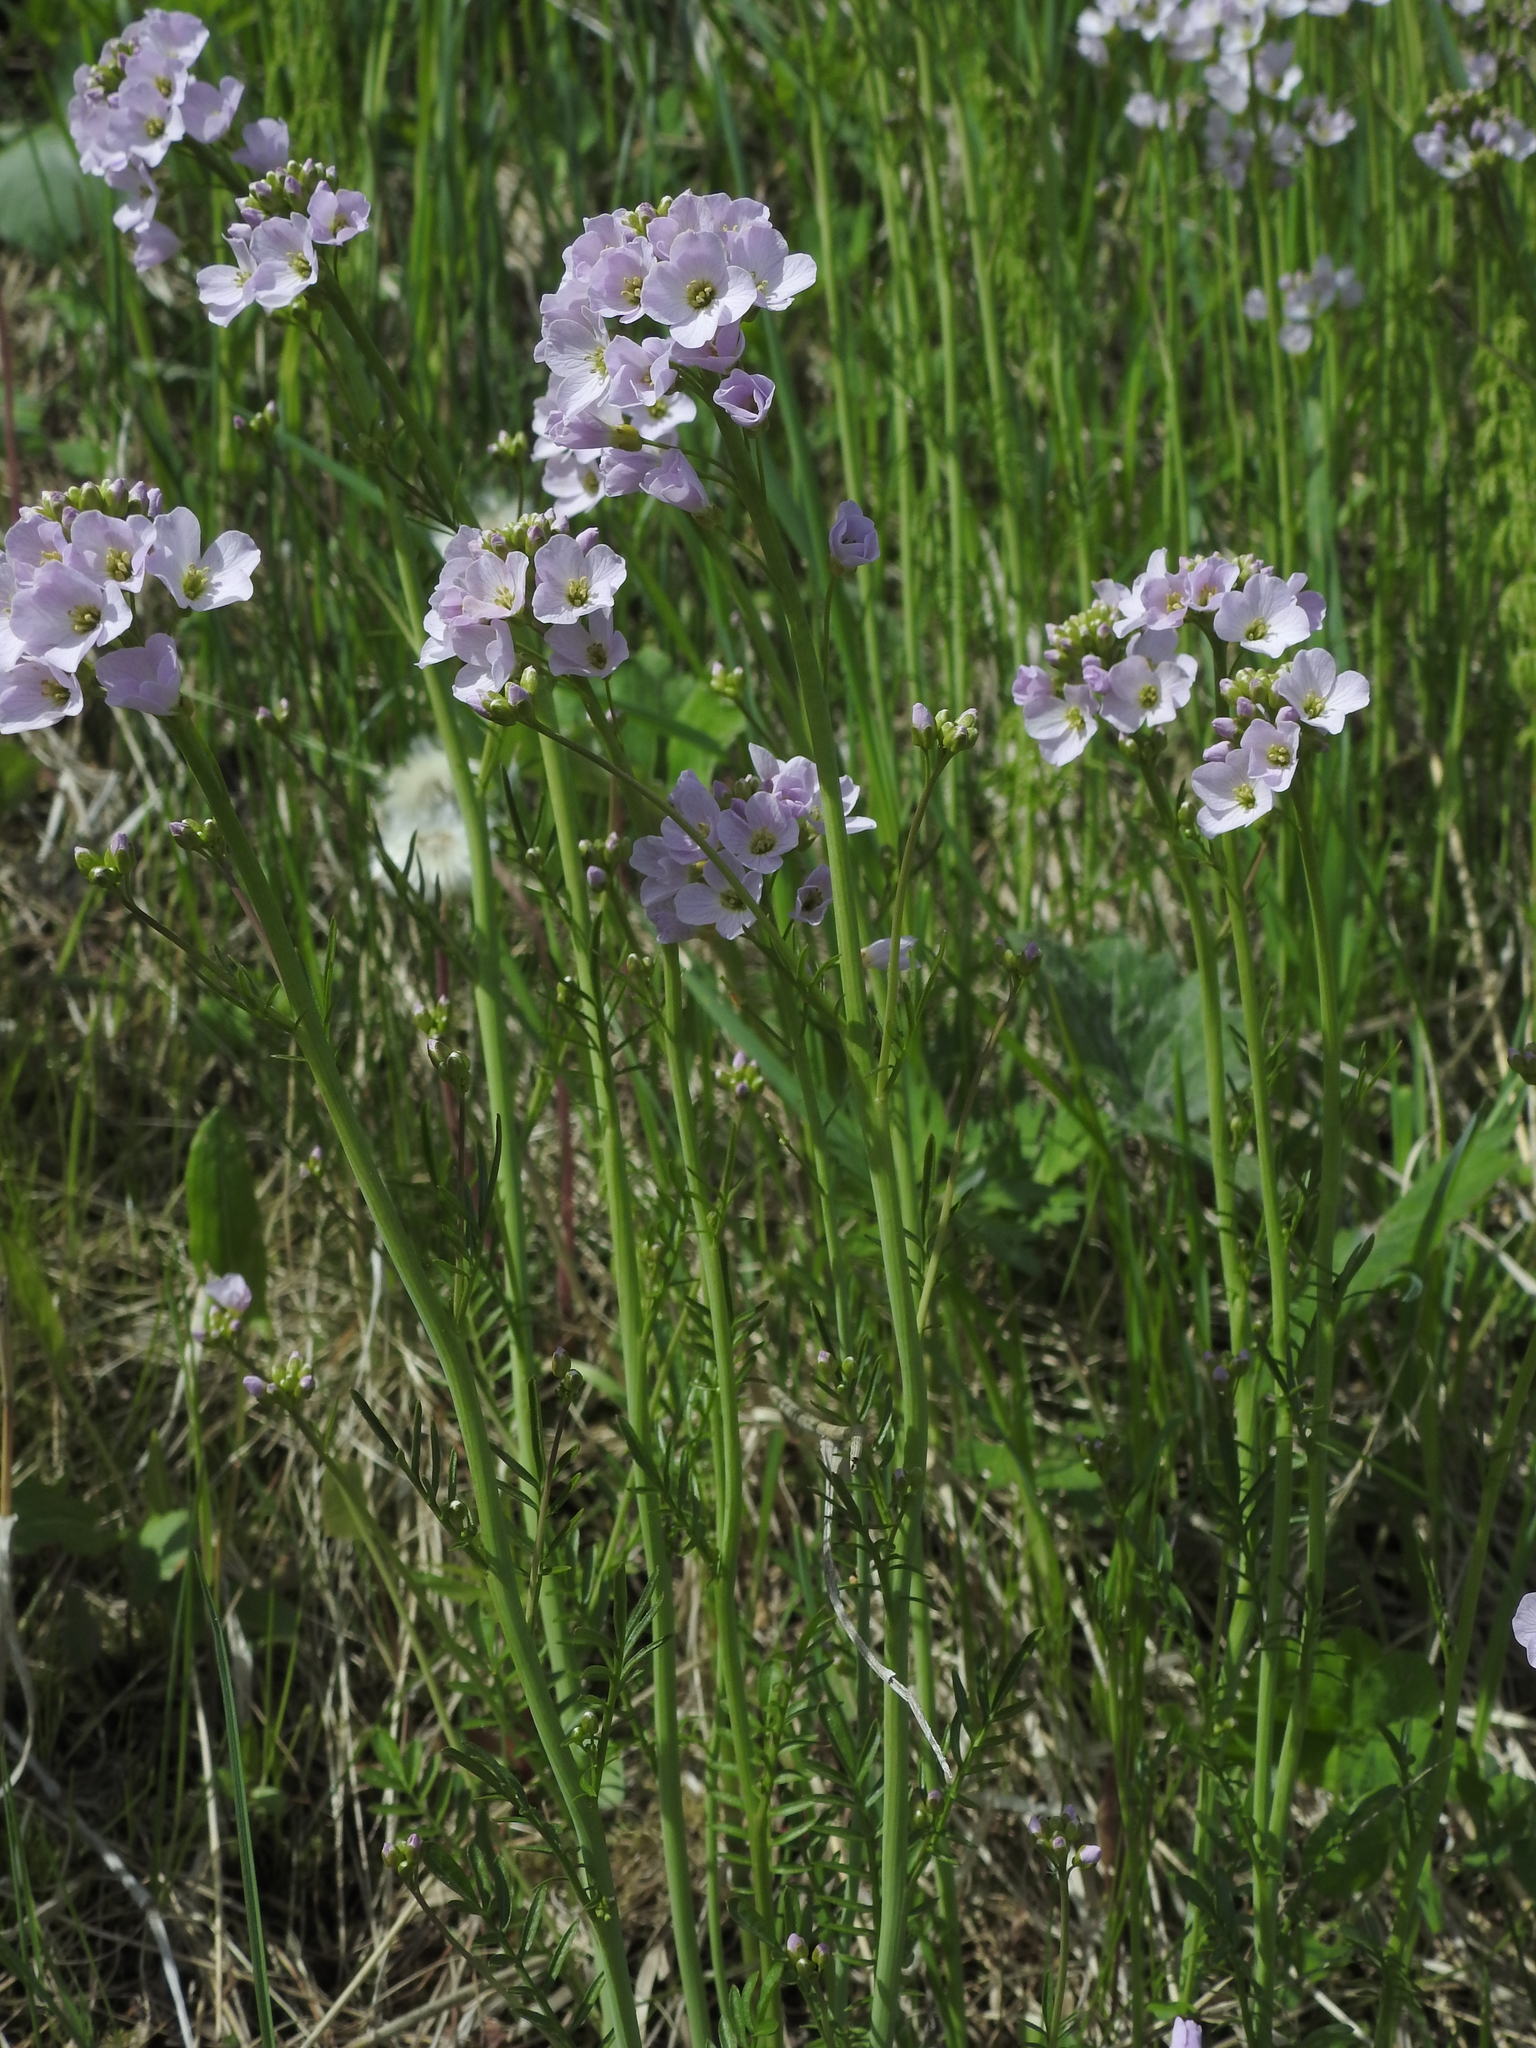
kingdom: Plantae
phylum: Tracheophyta
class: Magnoliopsida
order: Brassicales
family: Brassicaceae
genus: Cardamine
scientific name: Cardamine pratensis
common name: Cuckoo flower
